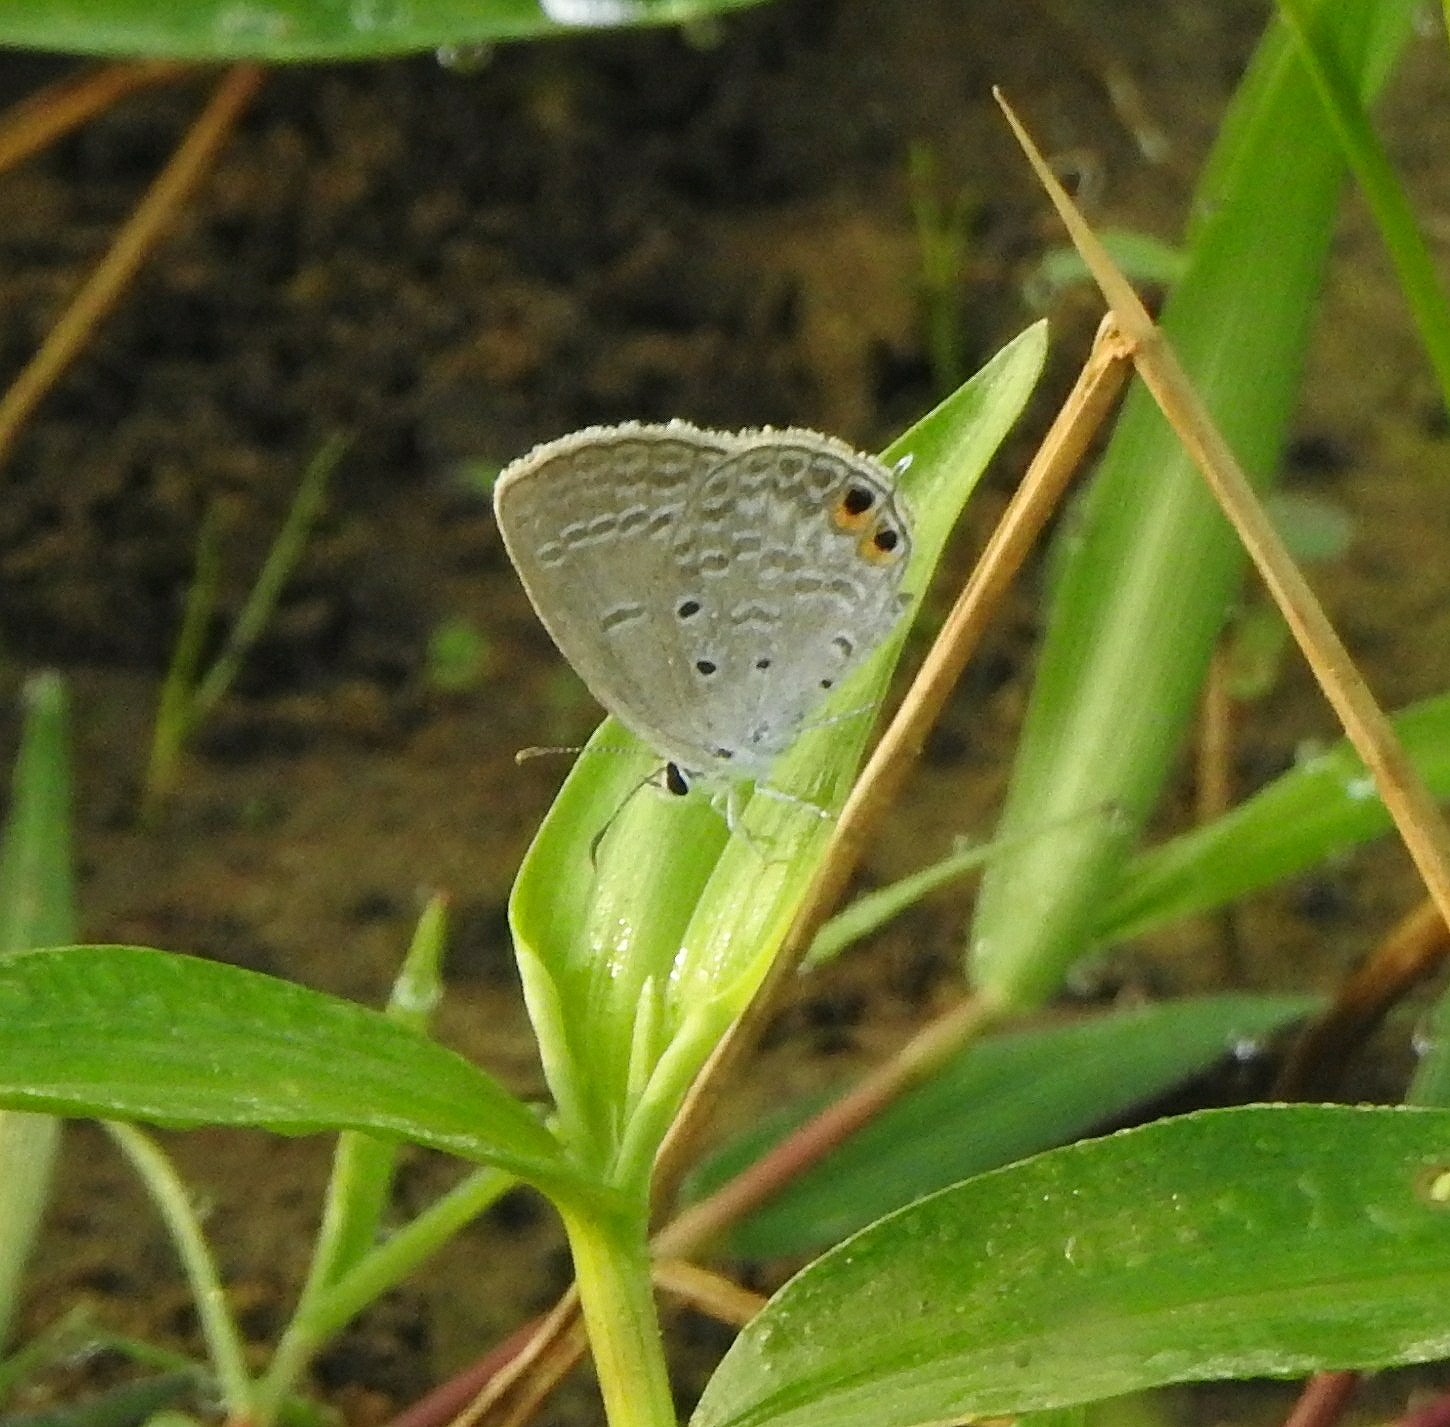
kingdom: Animalia
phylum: Arthropoda
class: Insecta
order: Lepidoptera
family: Lycaenidae
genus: Euchrysops
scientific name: Euchrysops cnejus
